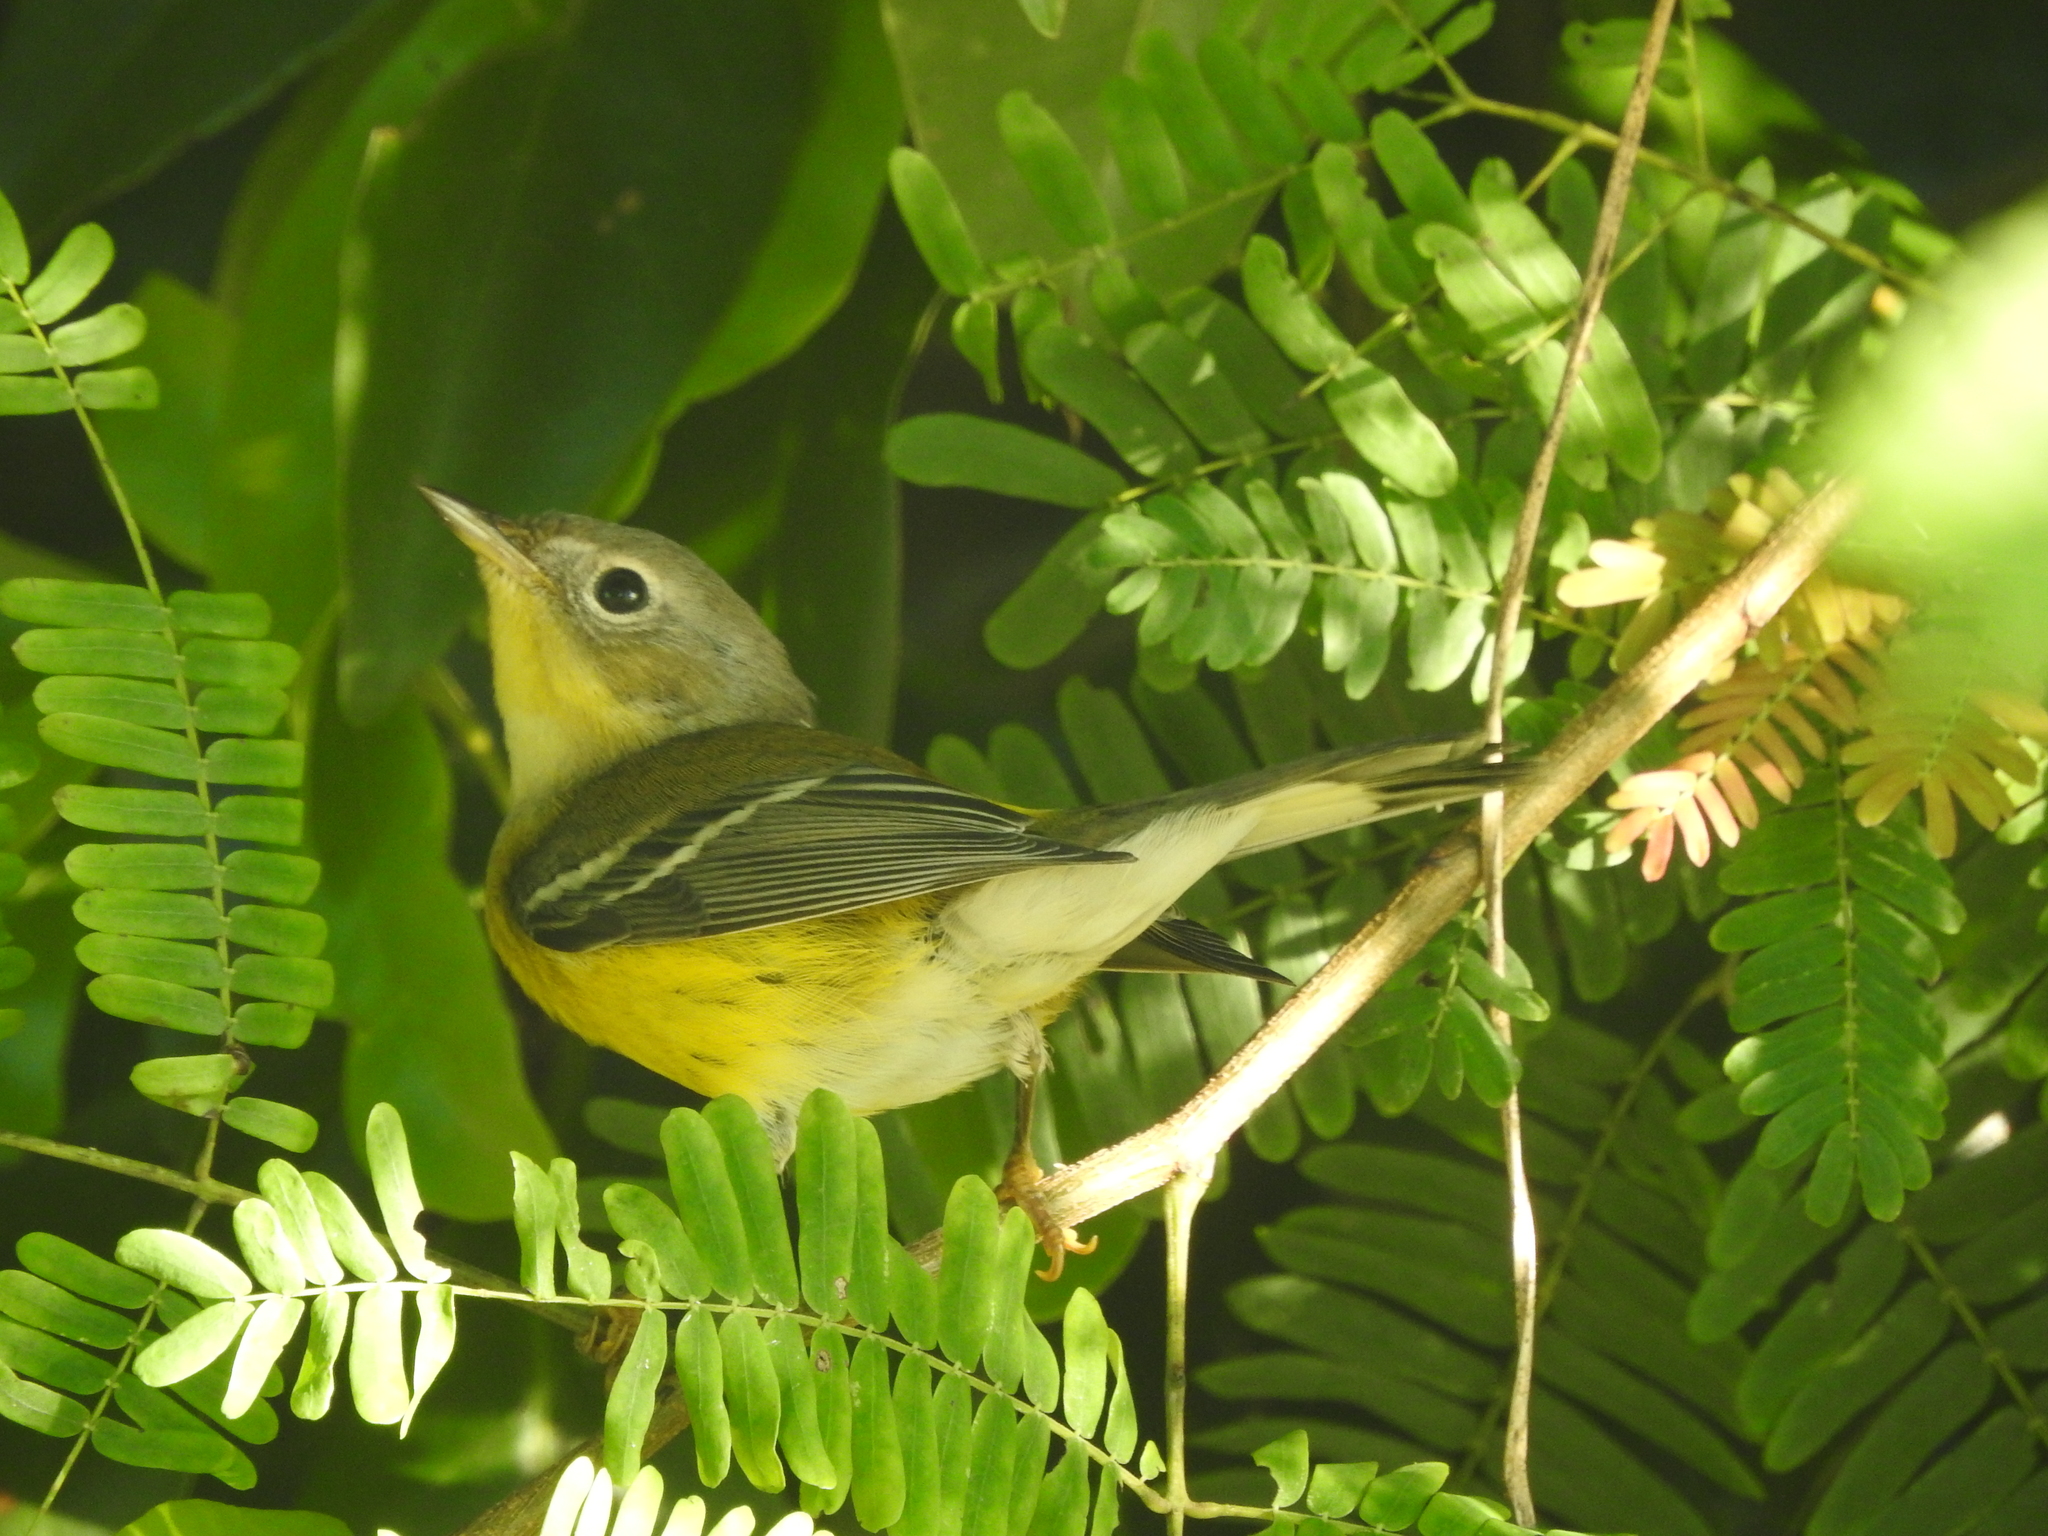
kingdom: Animalia
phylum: Chordata
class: Aves
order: Passeriformes
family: Parulidae
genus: Setophaga
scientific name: Setophaga magnolia
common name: Magnolia warbler
